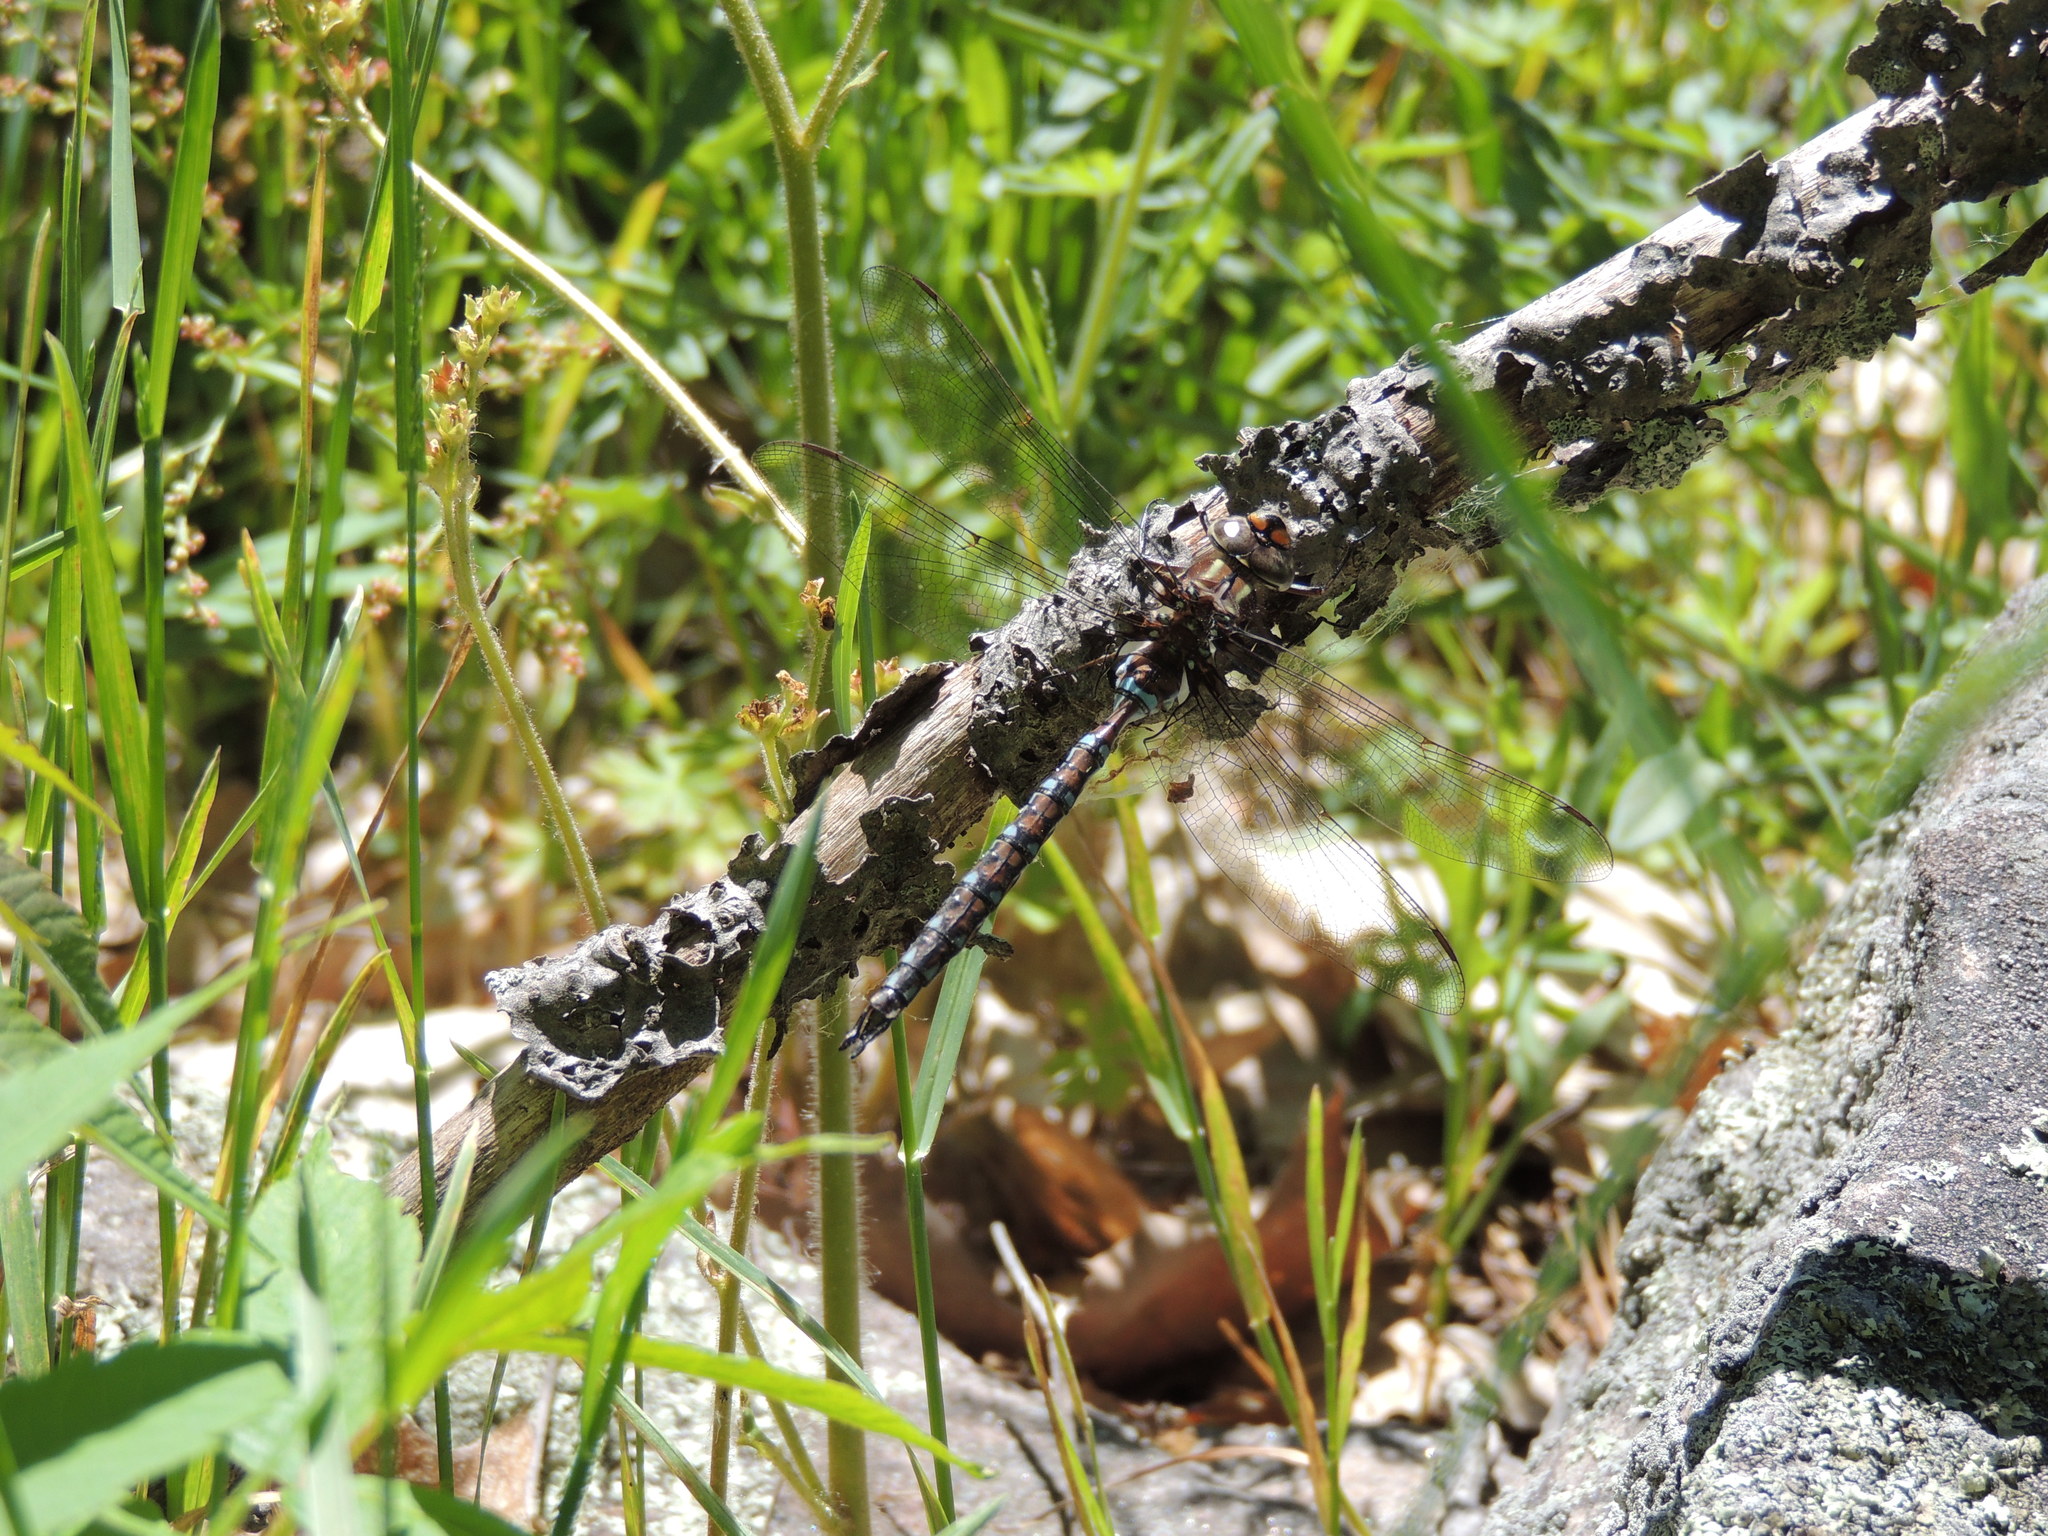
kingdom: Animalia
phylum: Arthropoda
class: Insecta
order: Odonata
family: Aeshnidae
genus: Basiaeschna
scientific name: Basiaeschna janata
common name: Springtime darner
